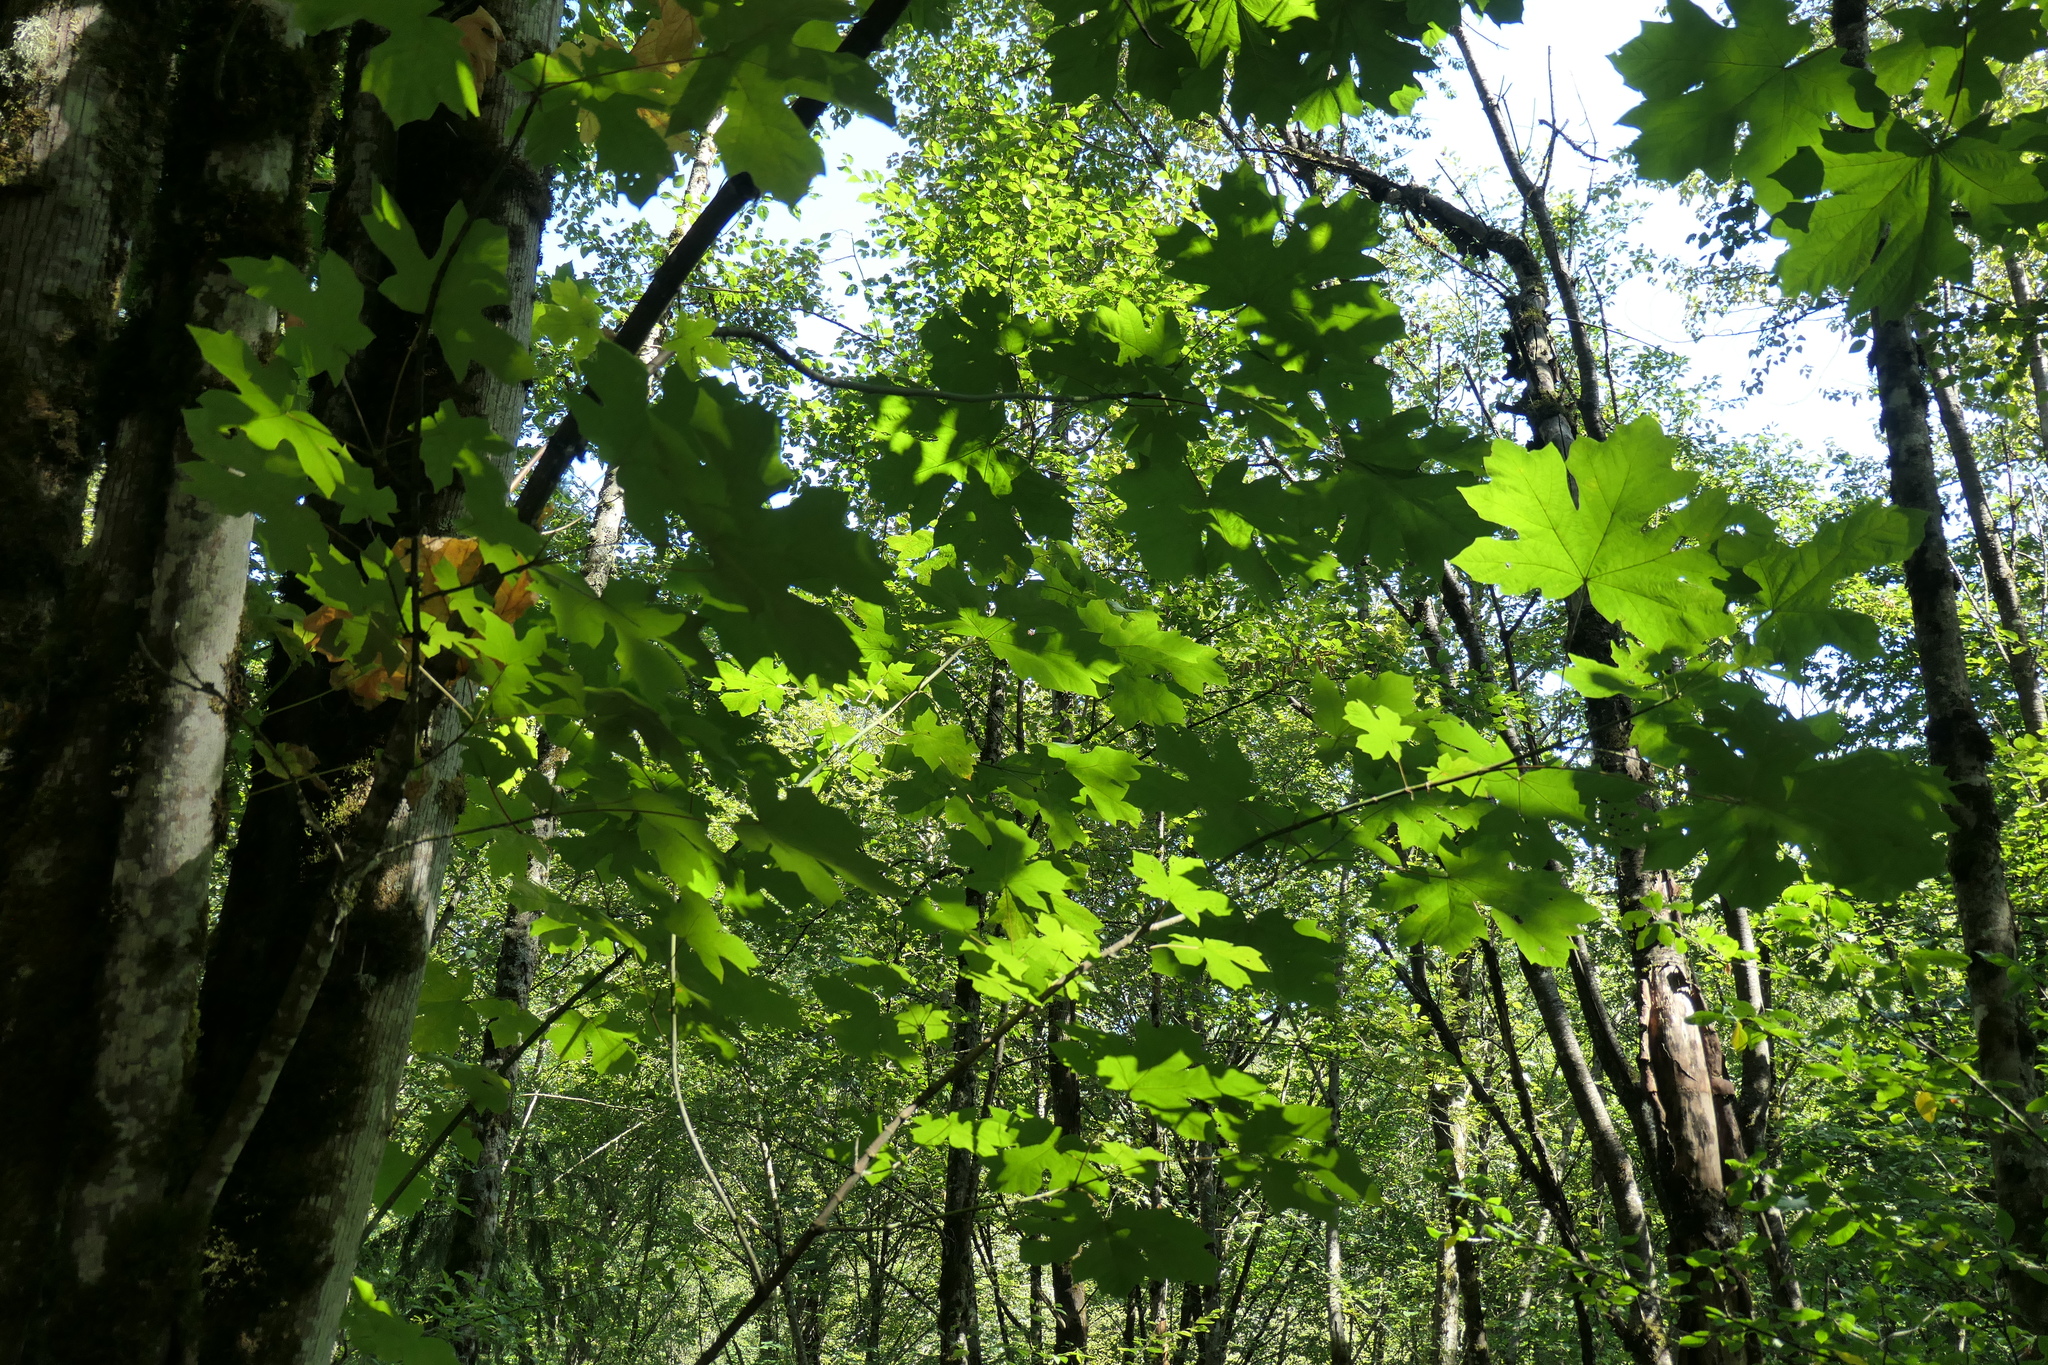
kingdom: Plantae
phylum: Tracheophyta
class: Magnoliopsida
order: Sapindales
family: Sapindaceae
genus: Acer
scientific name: Acer macrophyllum
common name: Oregon maple
